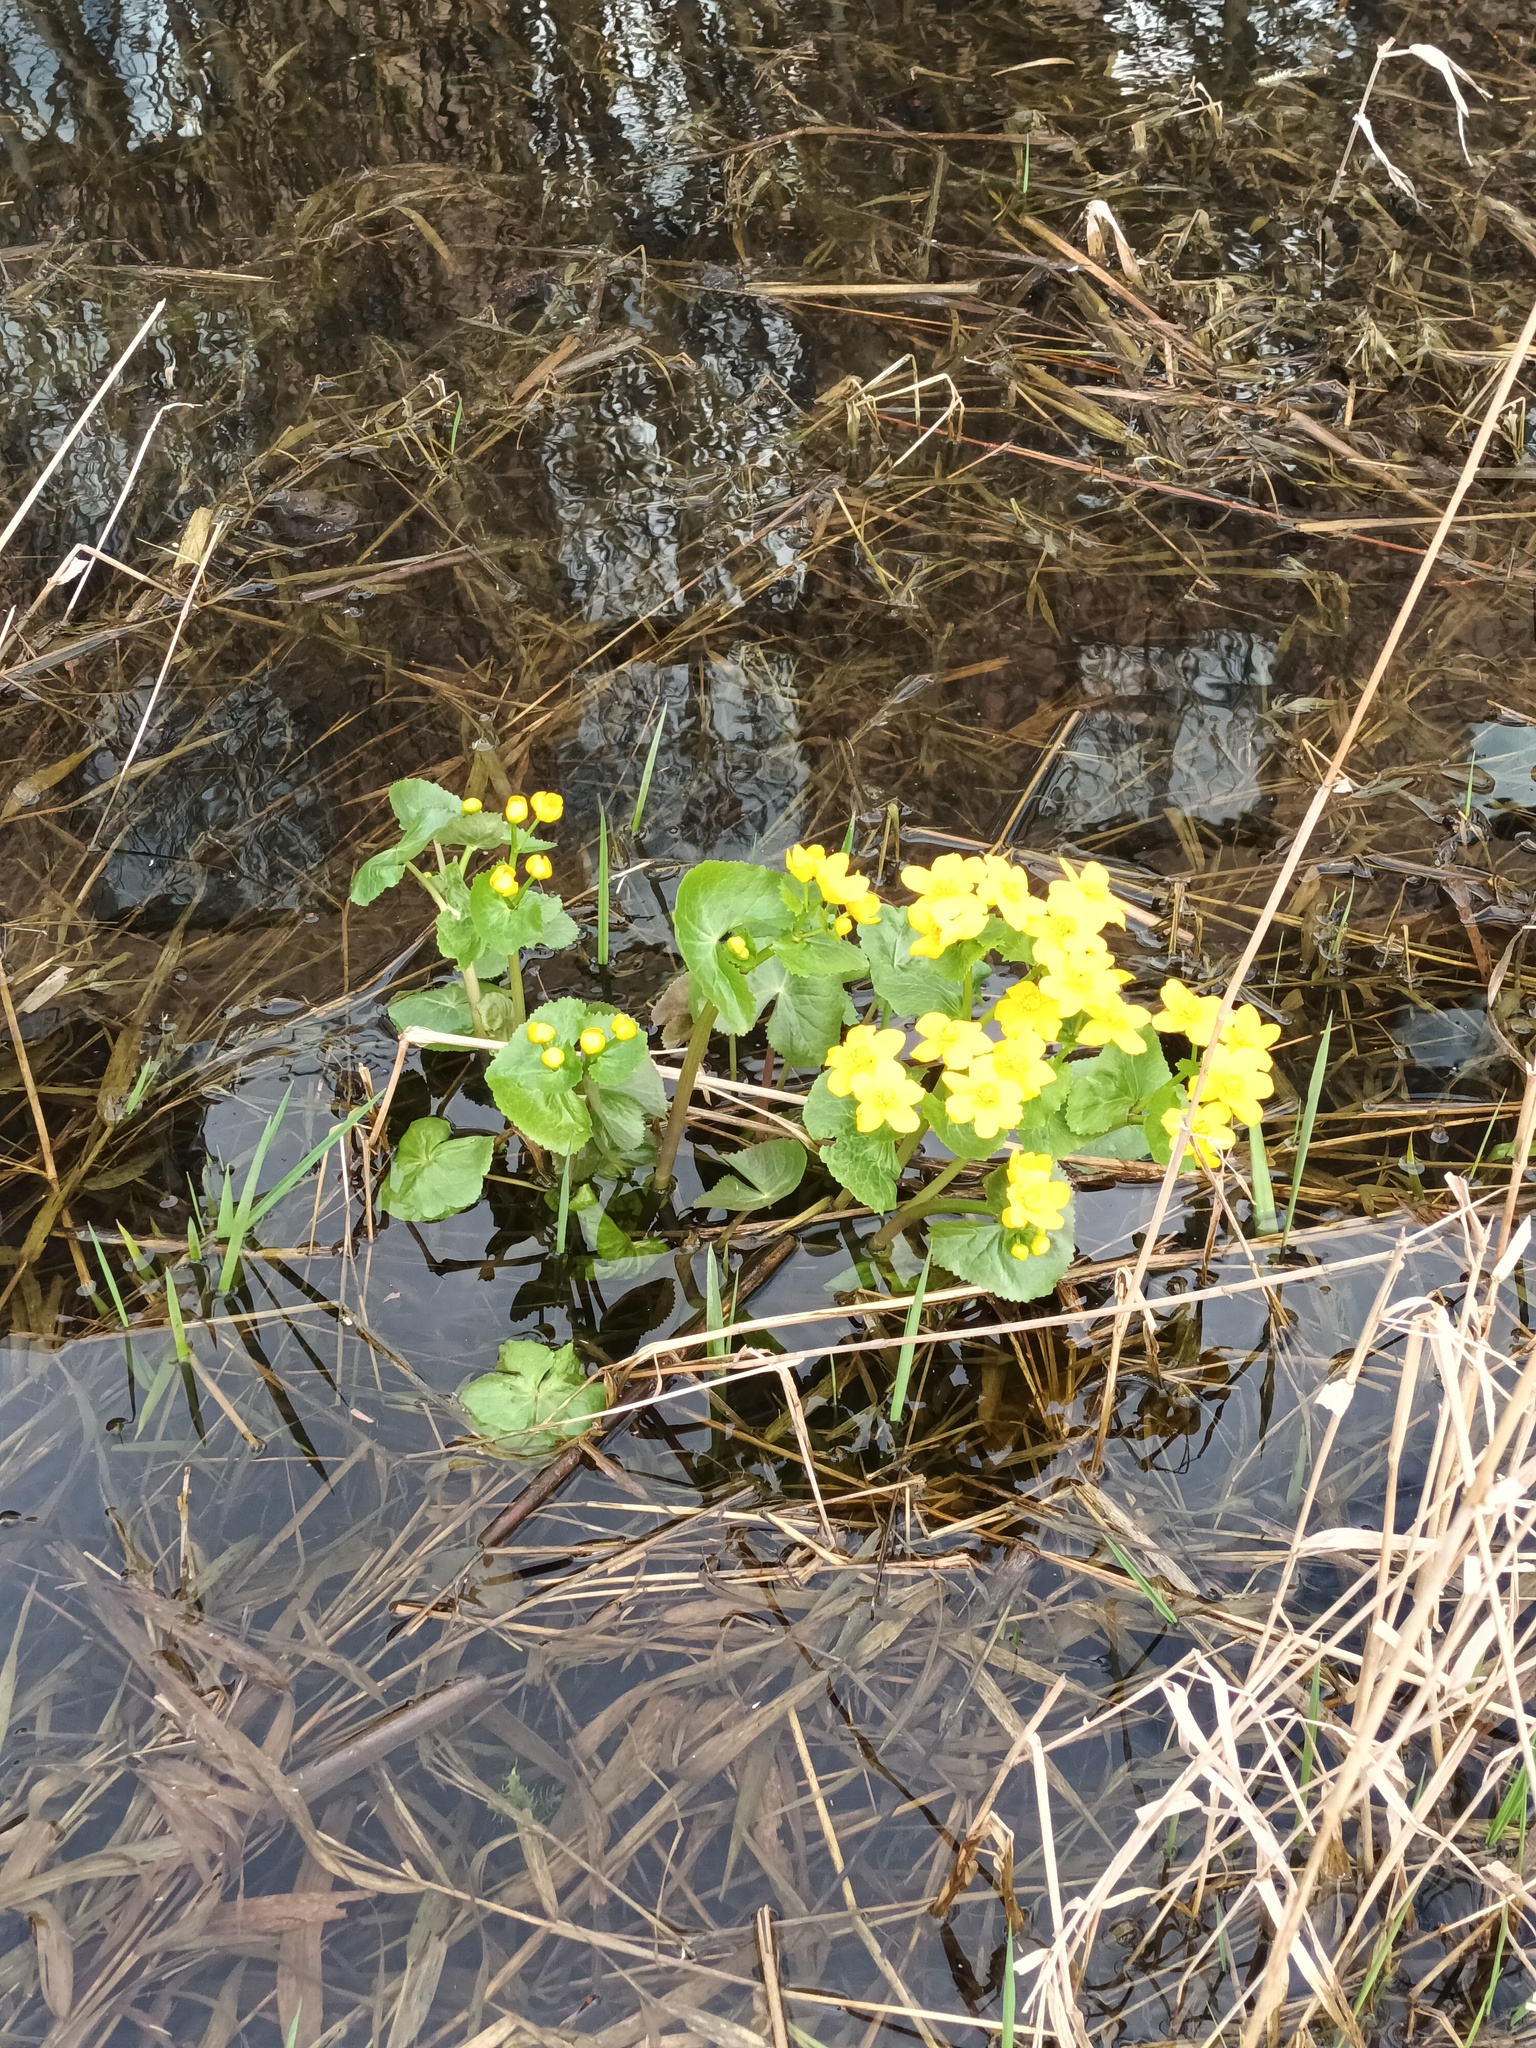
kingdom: Plantae
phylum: Tracheophyta
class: Magnoliopsida
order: Ranunculales
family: Ranunculaceae
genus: Caltha
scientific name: Caltha palustris
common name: Marsh marigold
